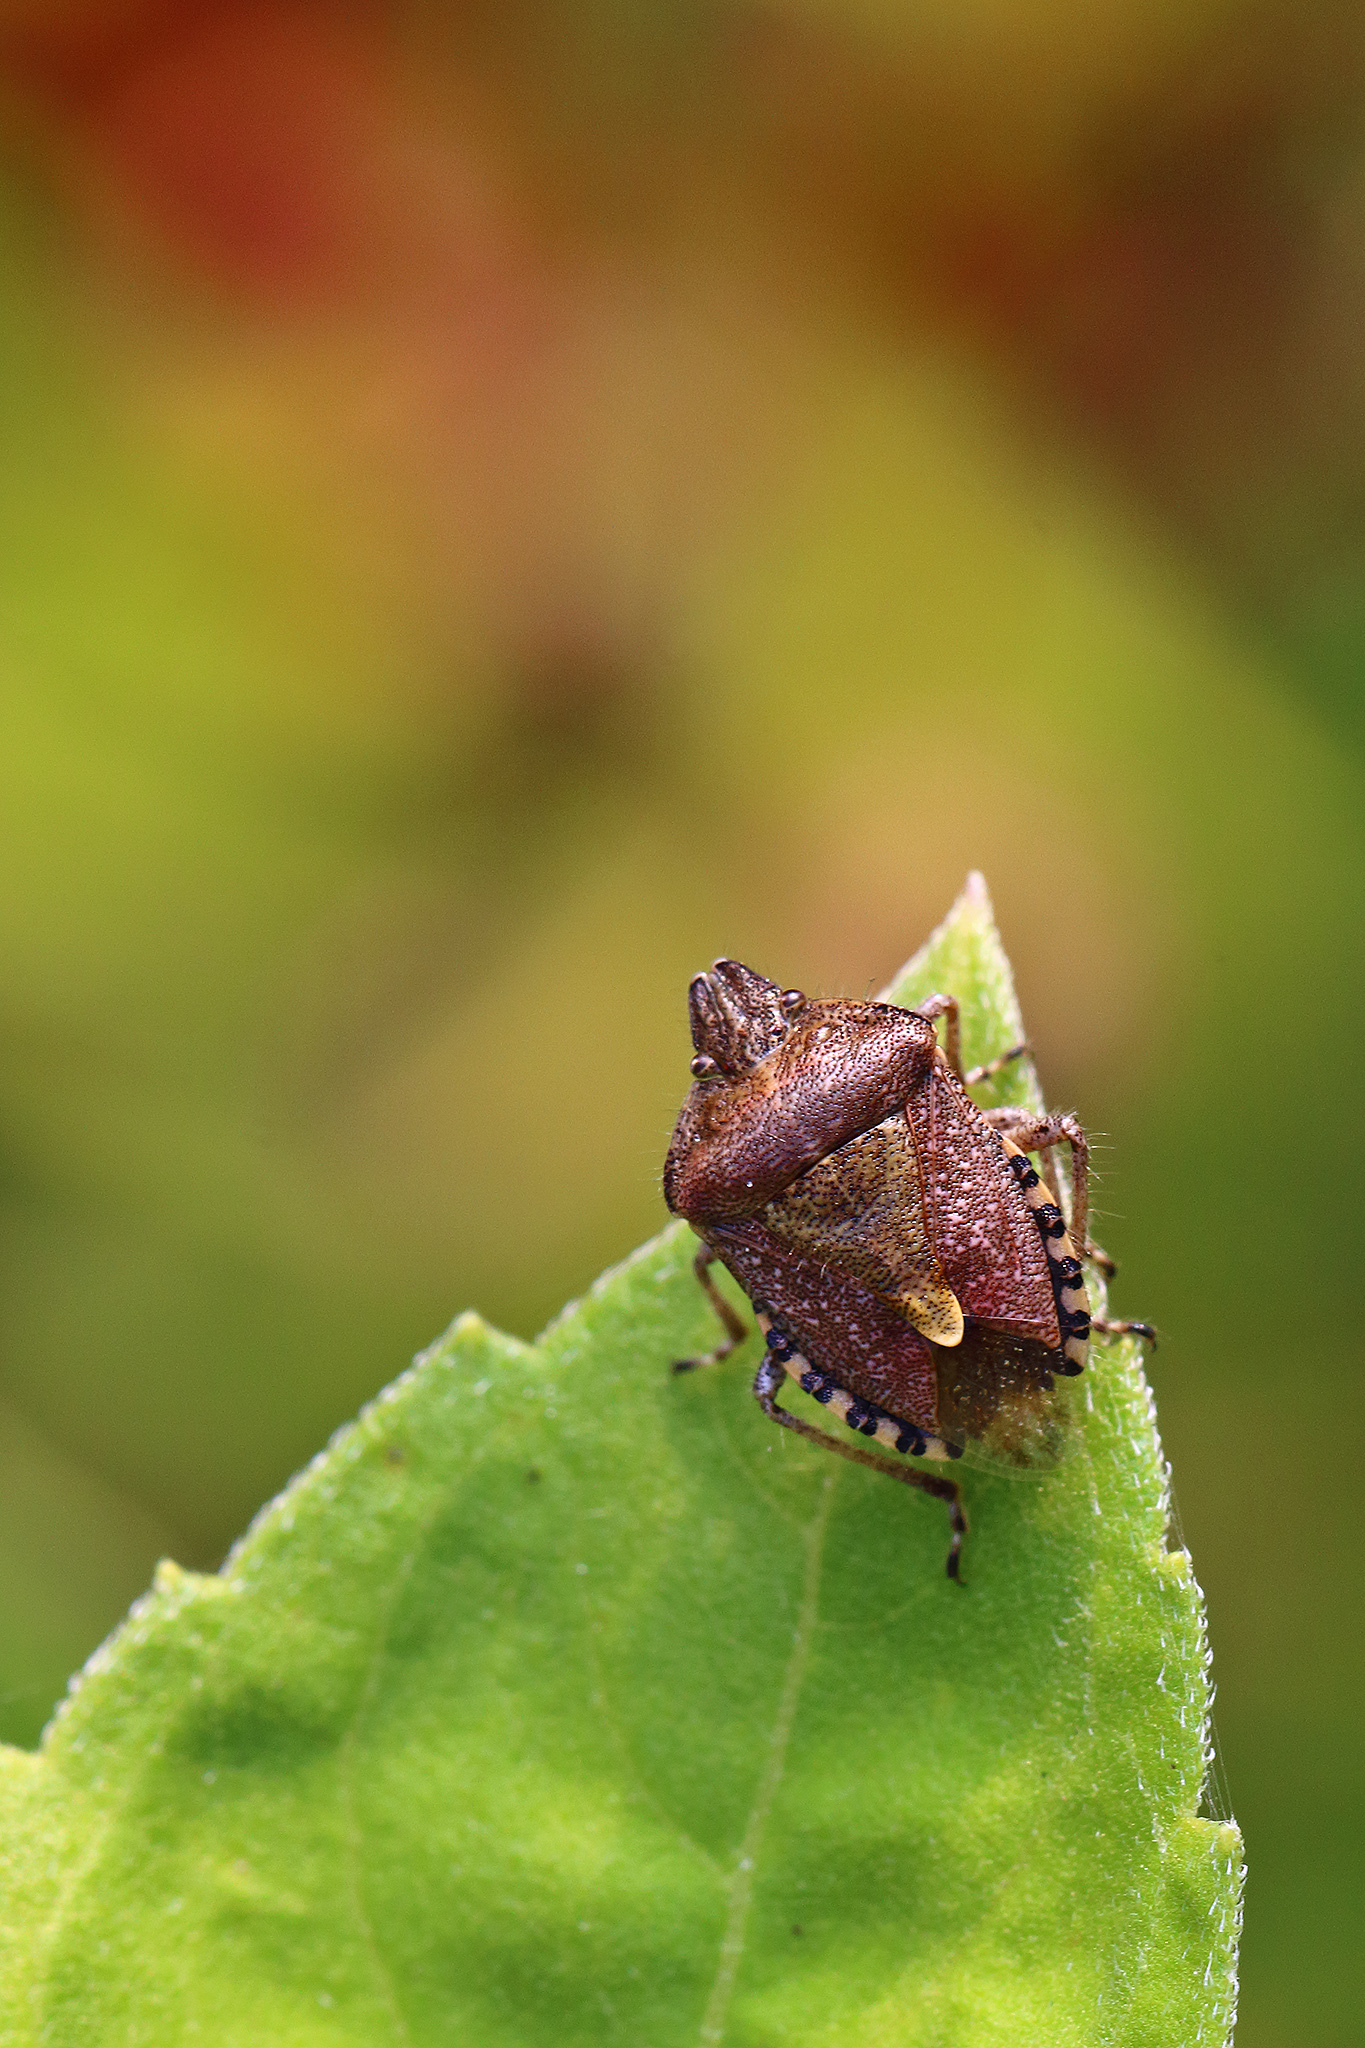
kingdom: Animalia
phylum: Arthropoda
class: Insecta
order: Hemiptera
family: Pentatomidae
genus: Dolycoris
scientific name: Dolycoris baccarum
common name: Sloe bug
